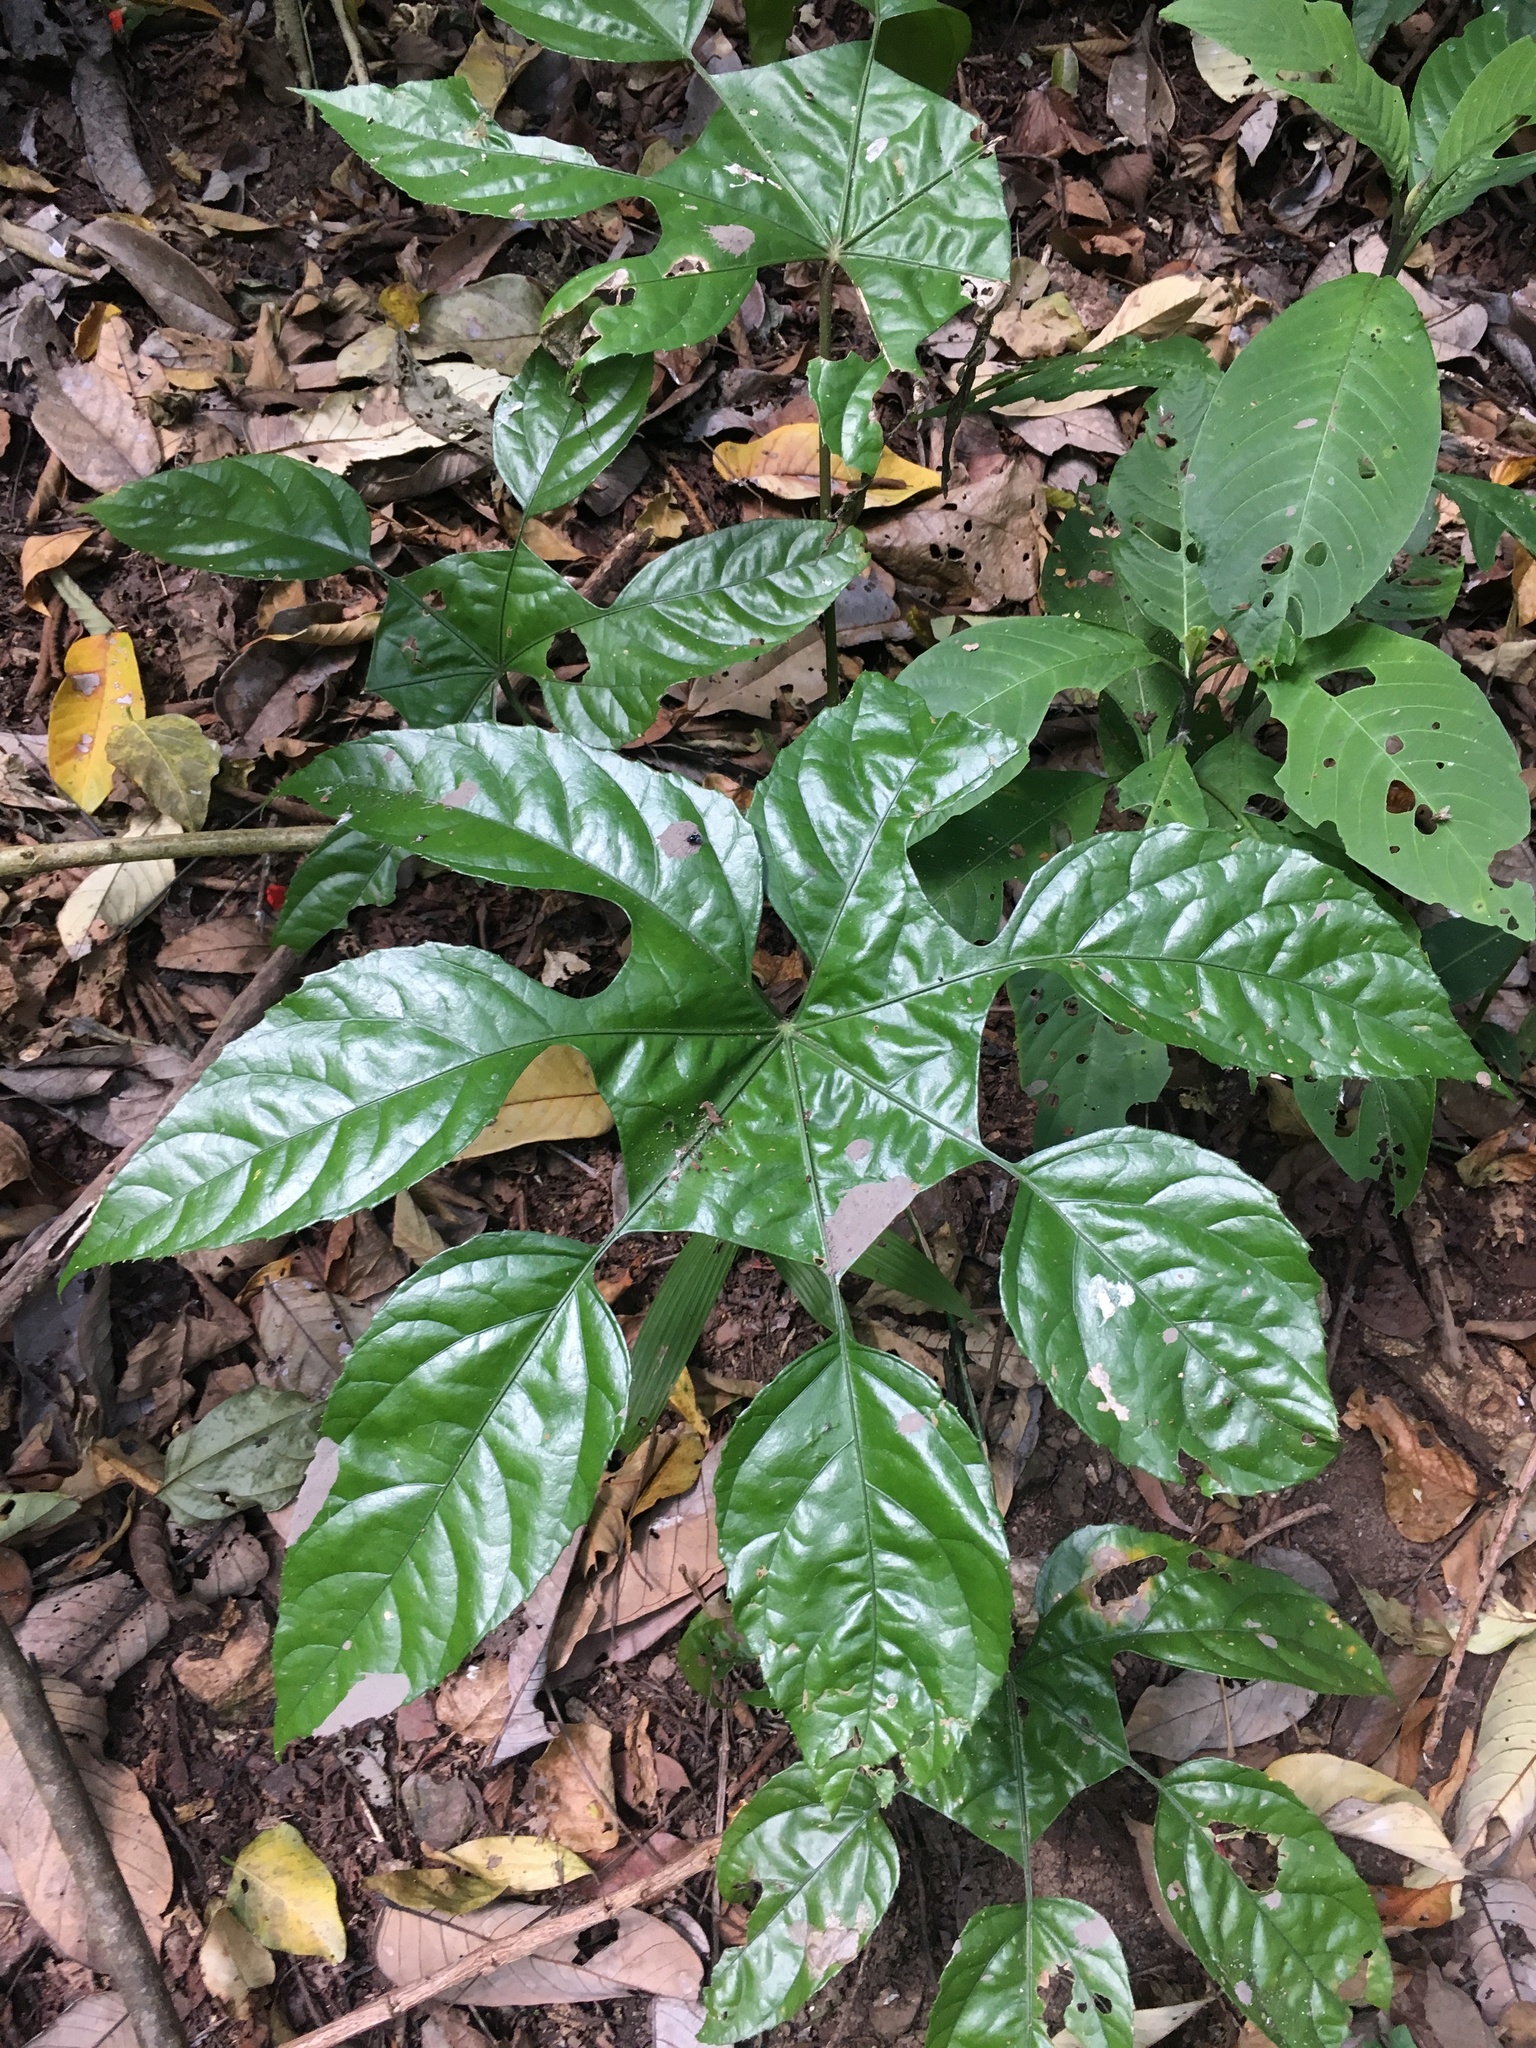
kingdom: Plantae
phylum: Tracheophyta
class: Magnoliopsida
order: Apiales
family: Araliaceae
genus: Trevesia
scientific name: Trevesia burckii
